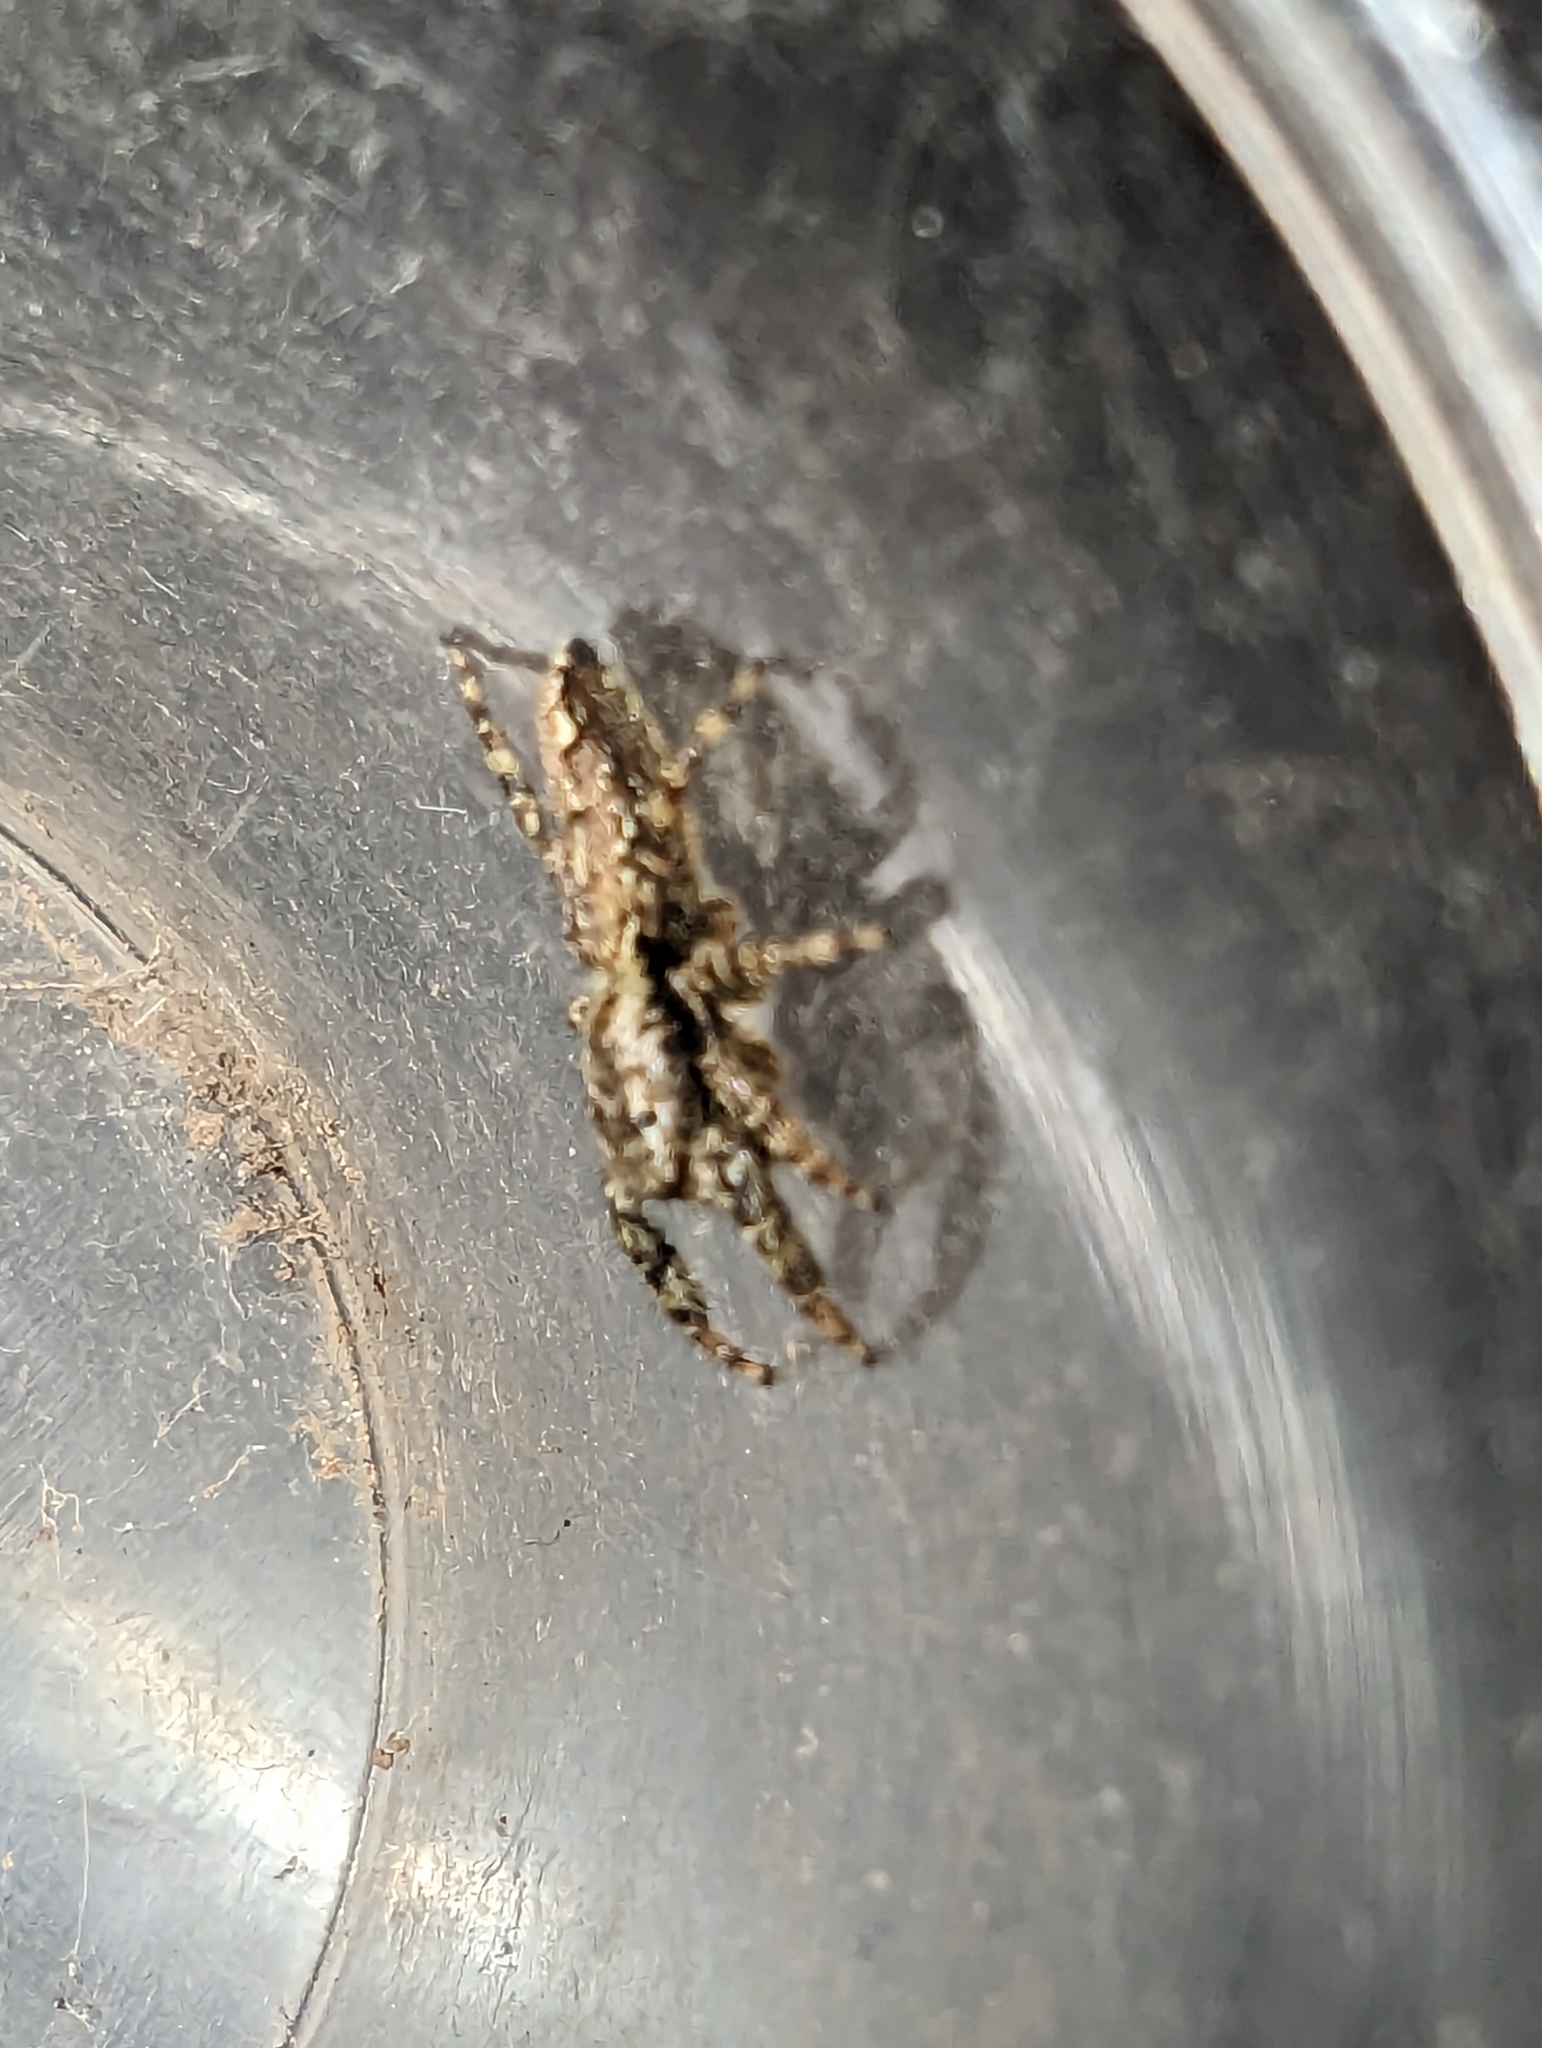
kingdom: Animalia
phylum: Arthropoda
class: Arachnida
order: Araneae
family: Salticidae
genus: Marpissa
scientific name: Marpissa muscosa
